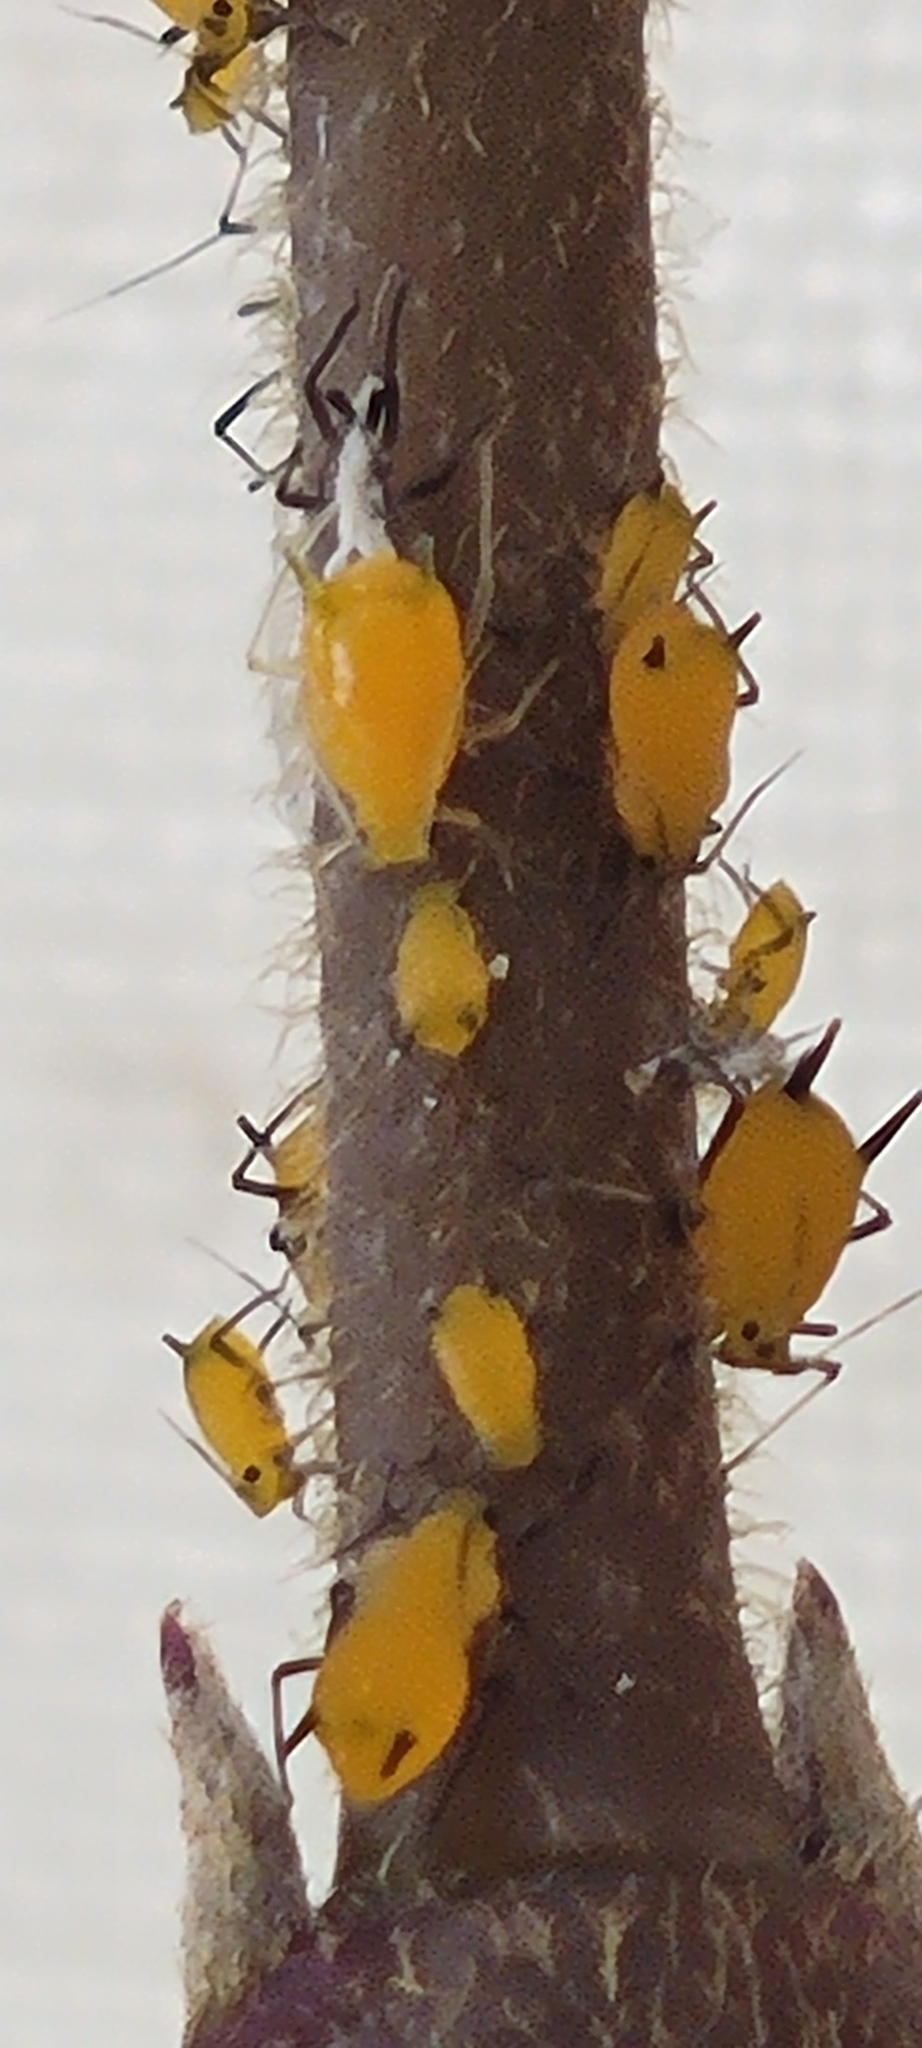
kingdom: Animalia
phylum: Arthropoda
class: Insecta
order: Hemiptera
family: Aphididae
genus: Aphis
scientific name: Aphis nerii
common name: Oleander aphid
